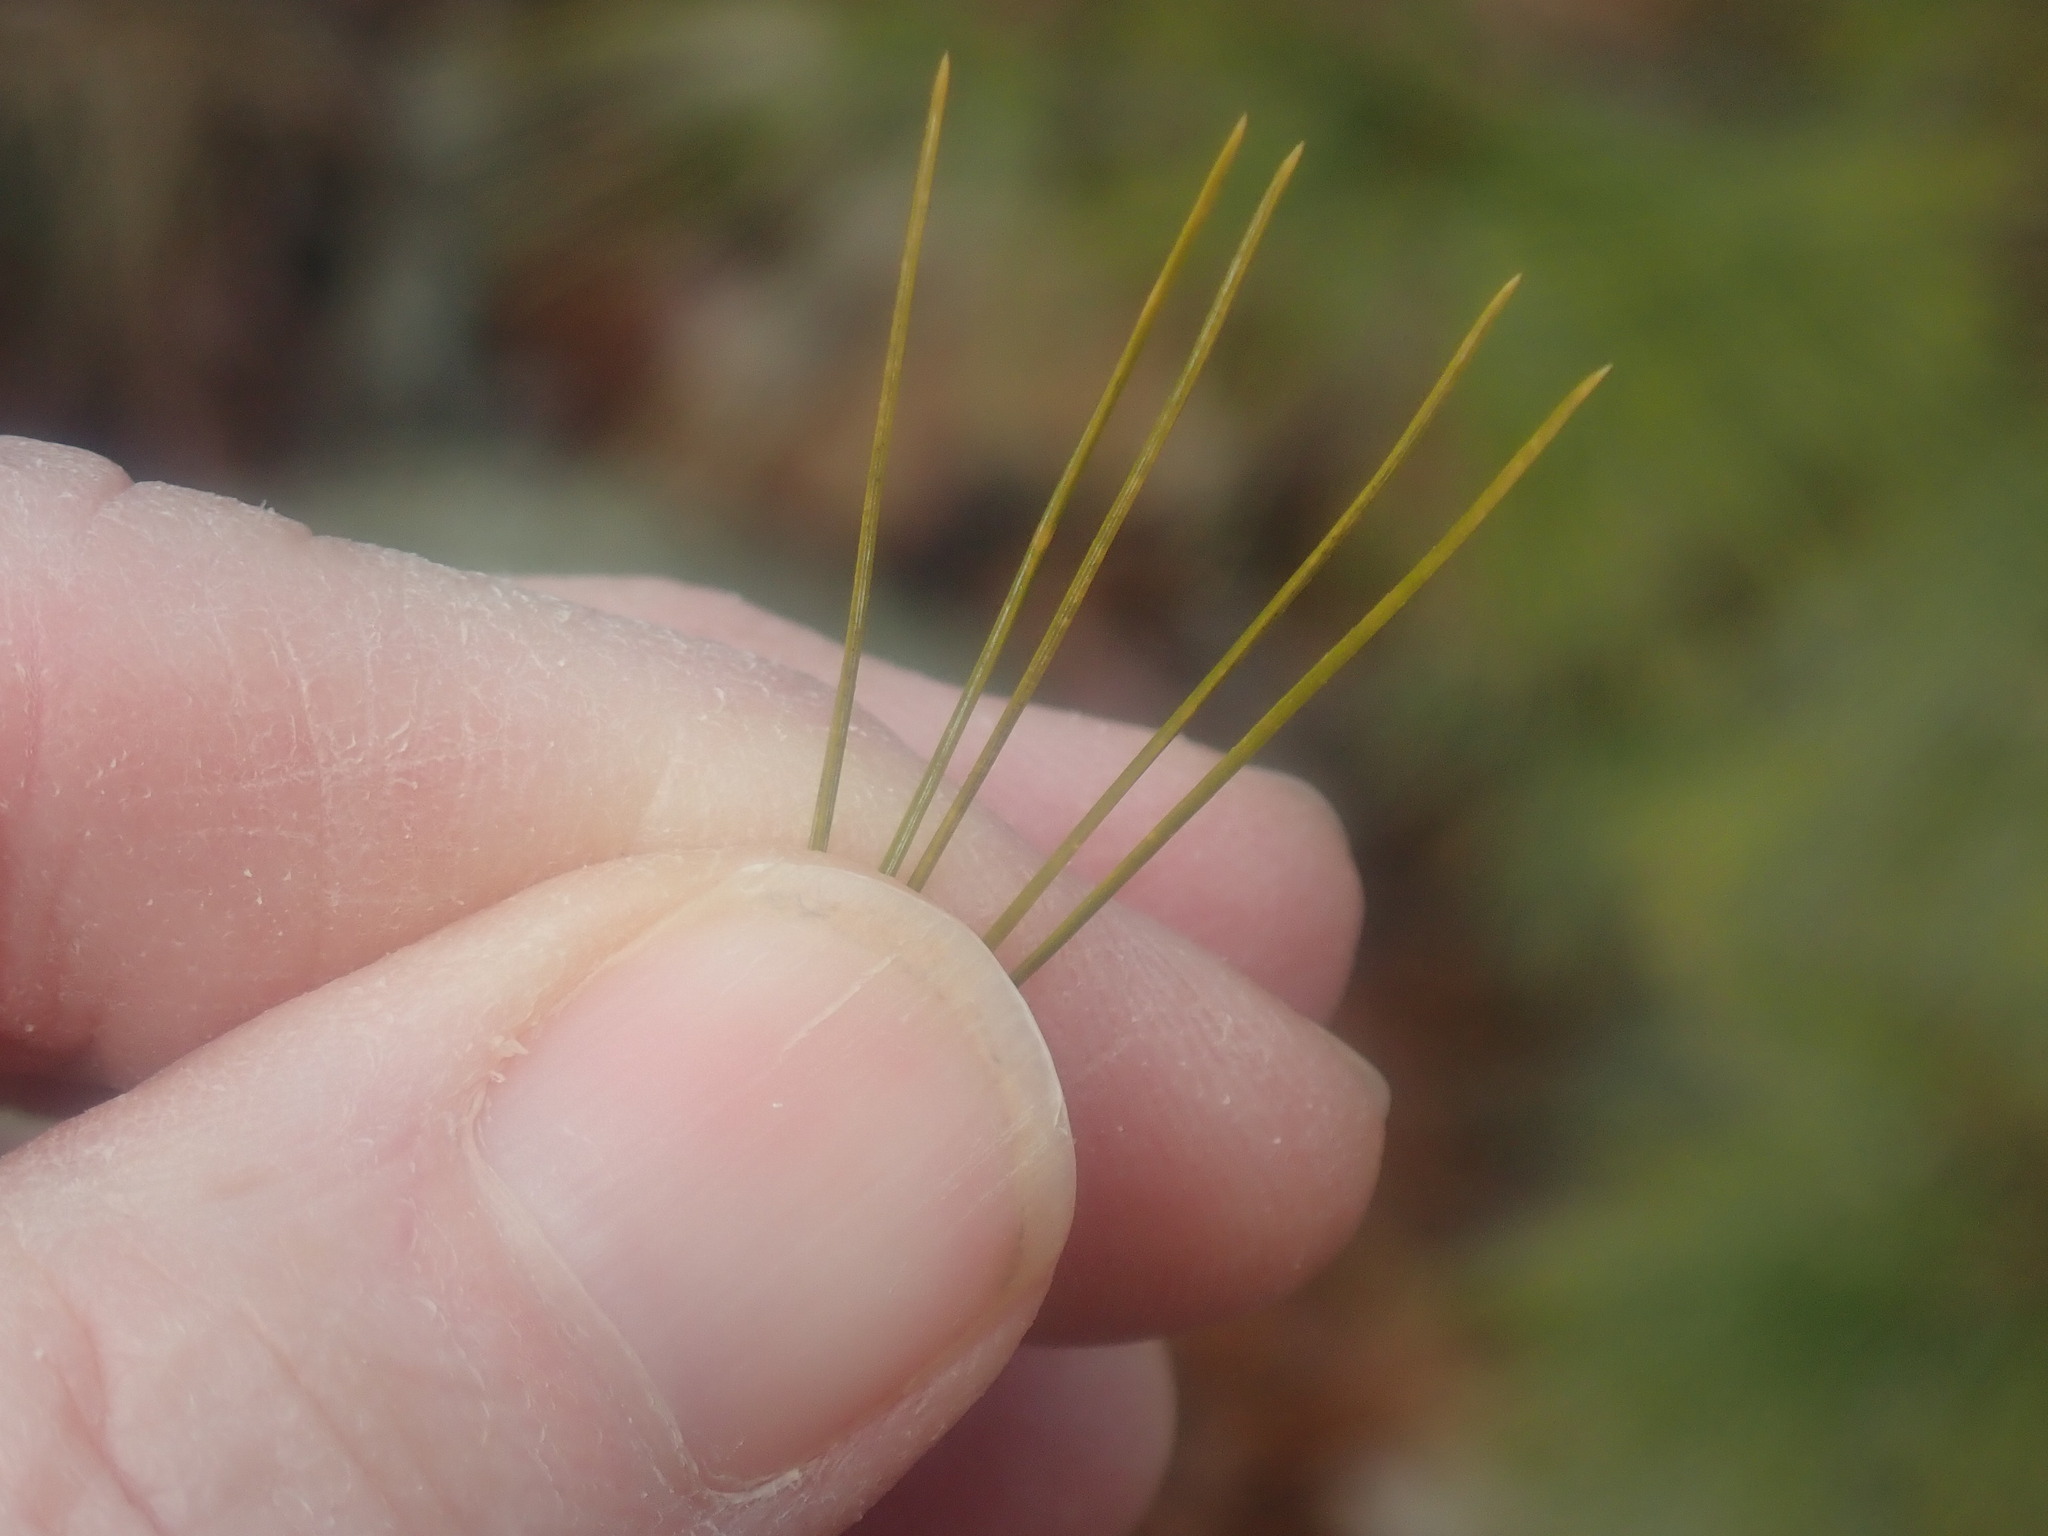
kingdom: Plantae
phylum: Tracheophyta
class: Pinopsida
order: Pinales
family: Pinaceae
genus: Pinus
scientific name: Pinus strobus
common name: Weymouth pine
